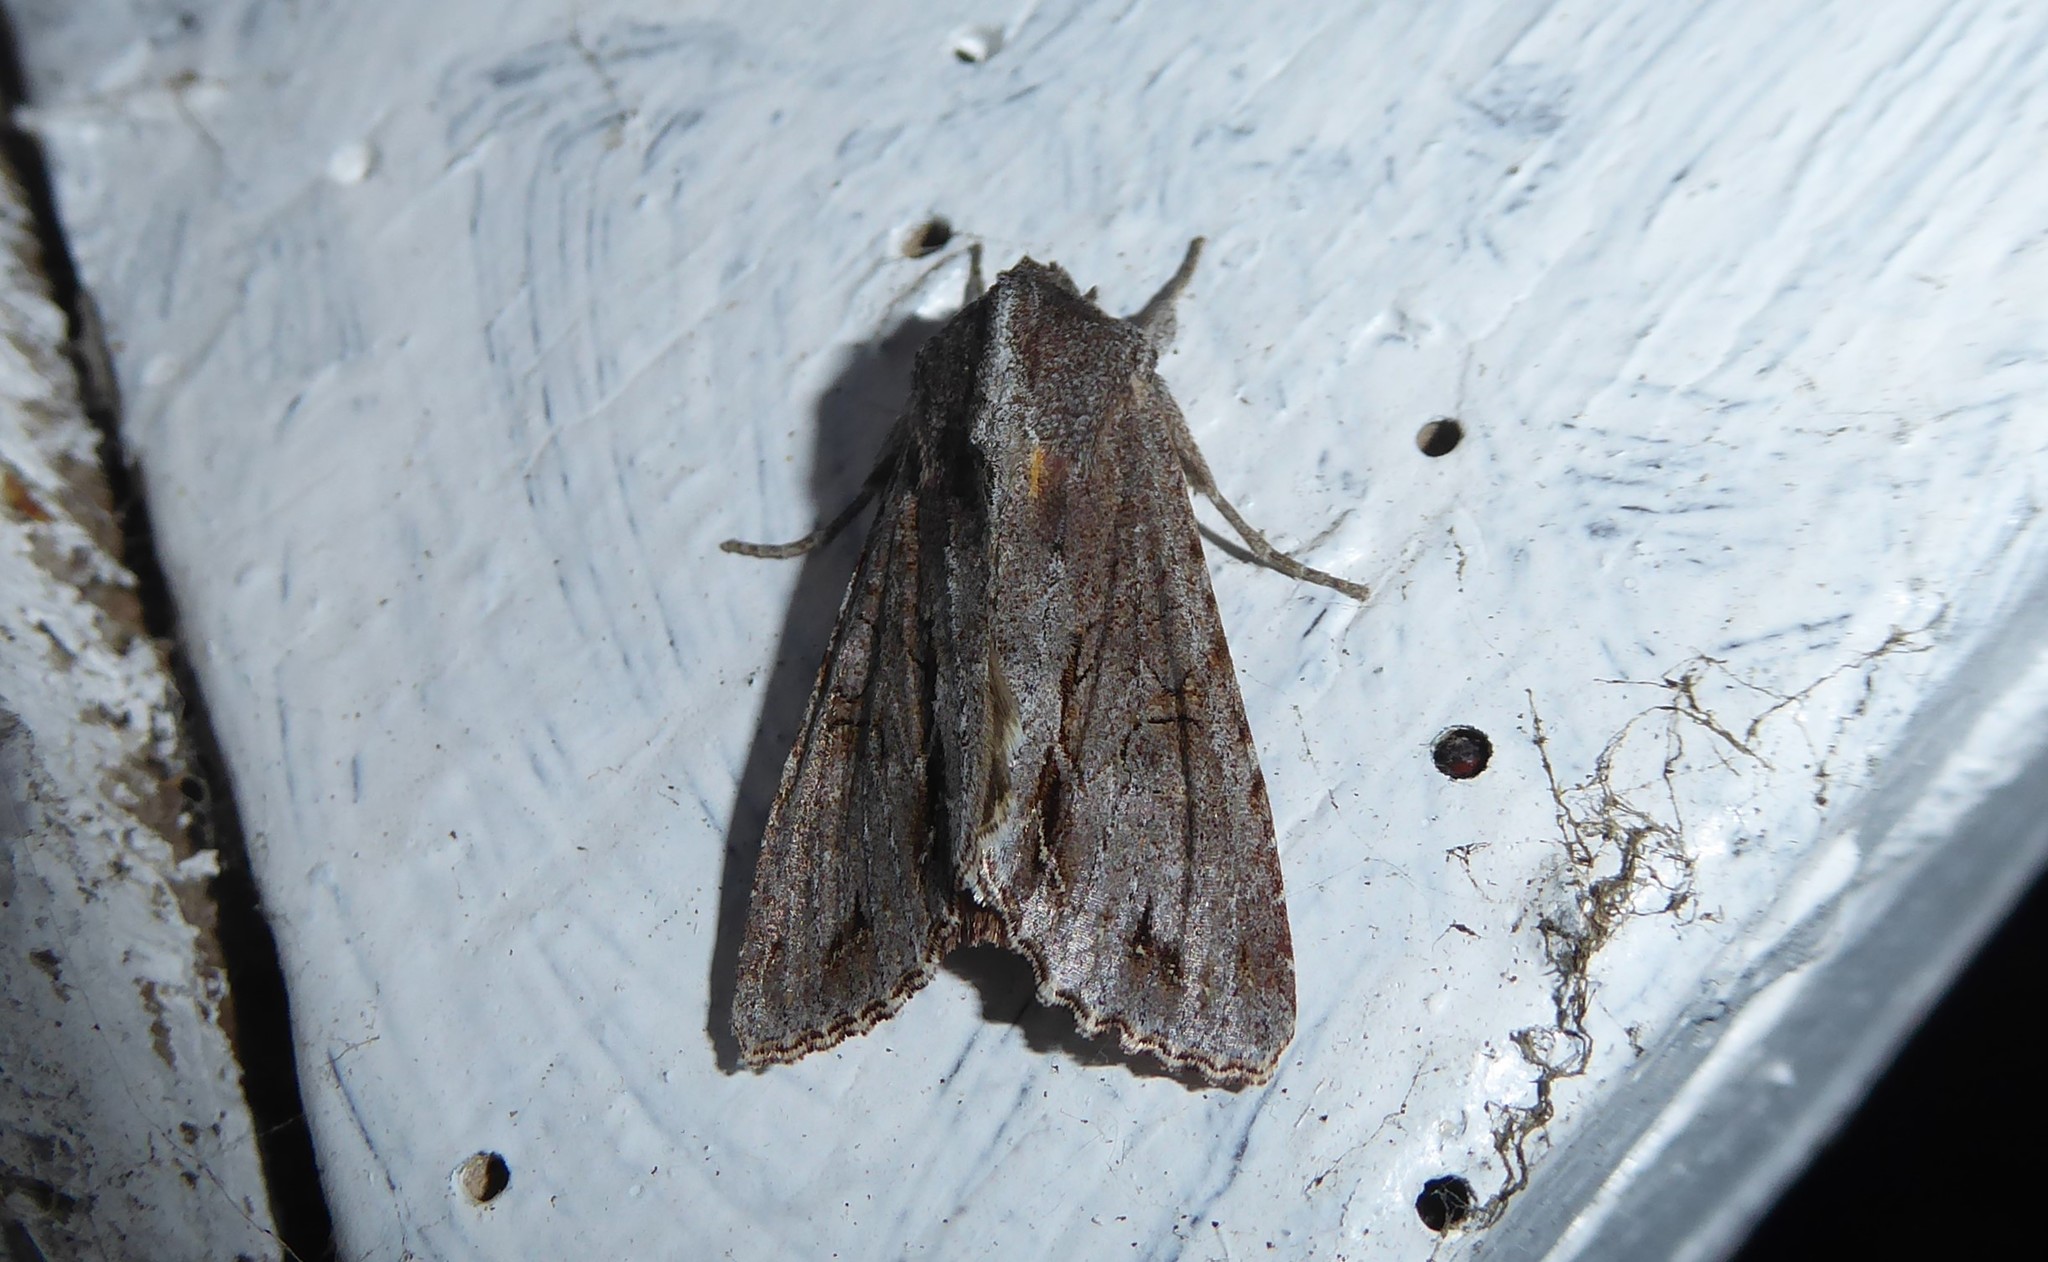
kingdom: Animalia
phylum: Arthropoda
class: Insecta
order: Lepidoptera
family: Noctuidae
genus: Ichneutica
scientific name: Ichneutica
